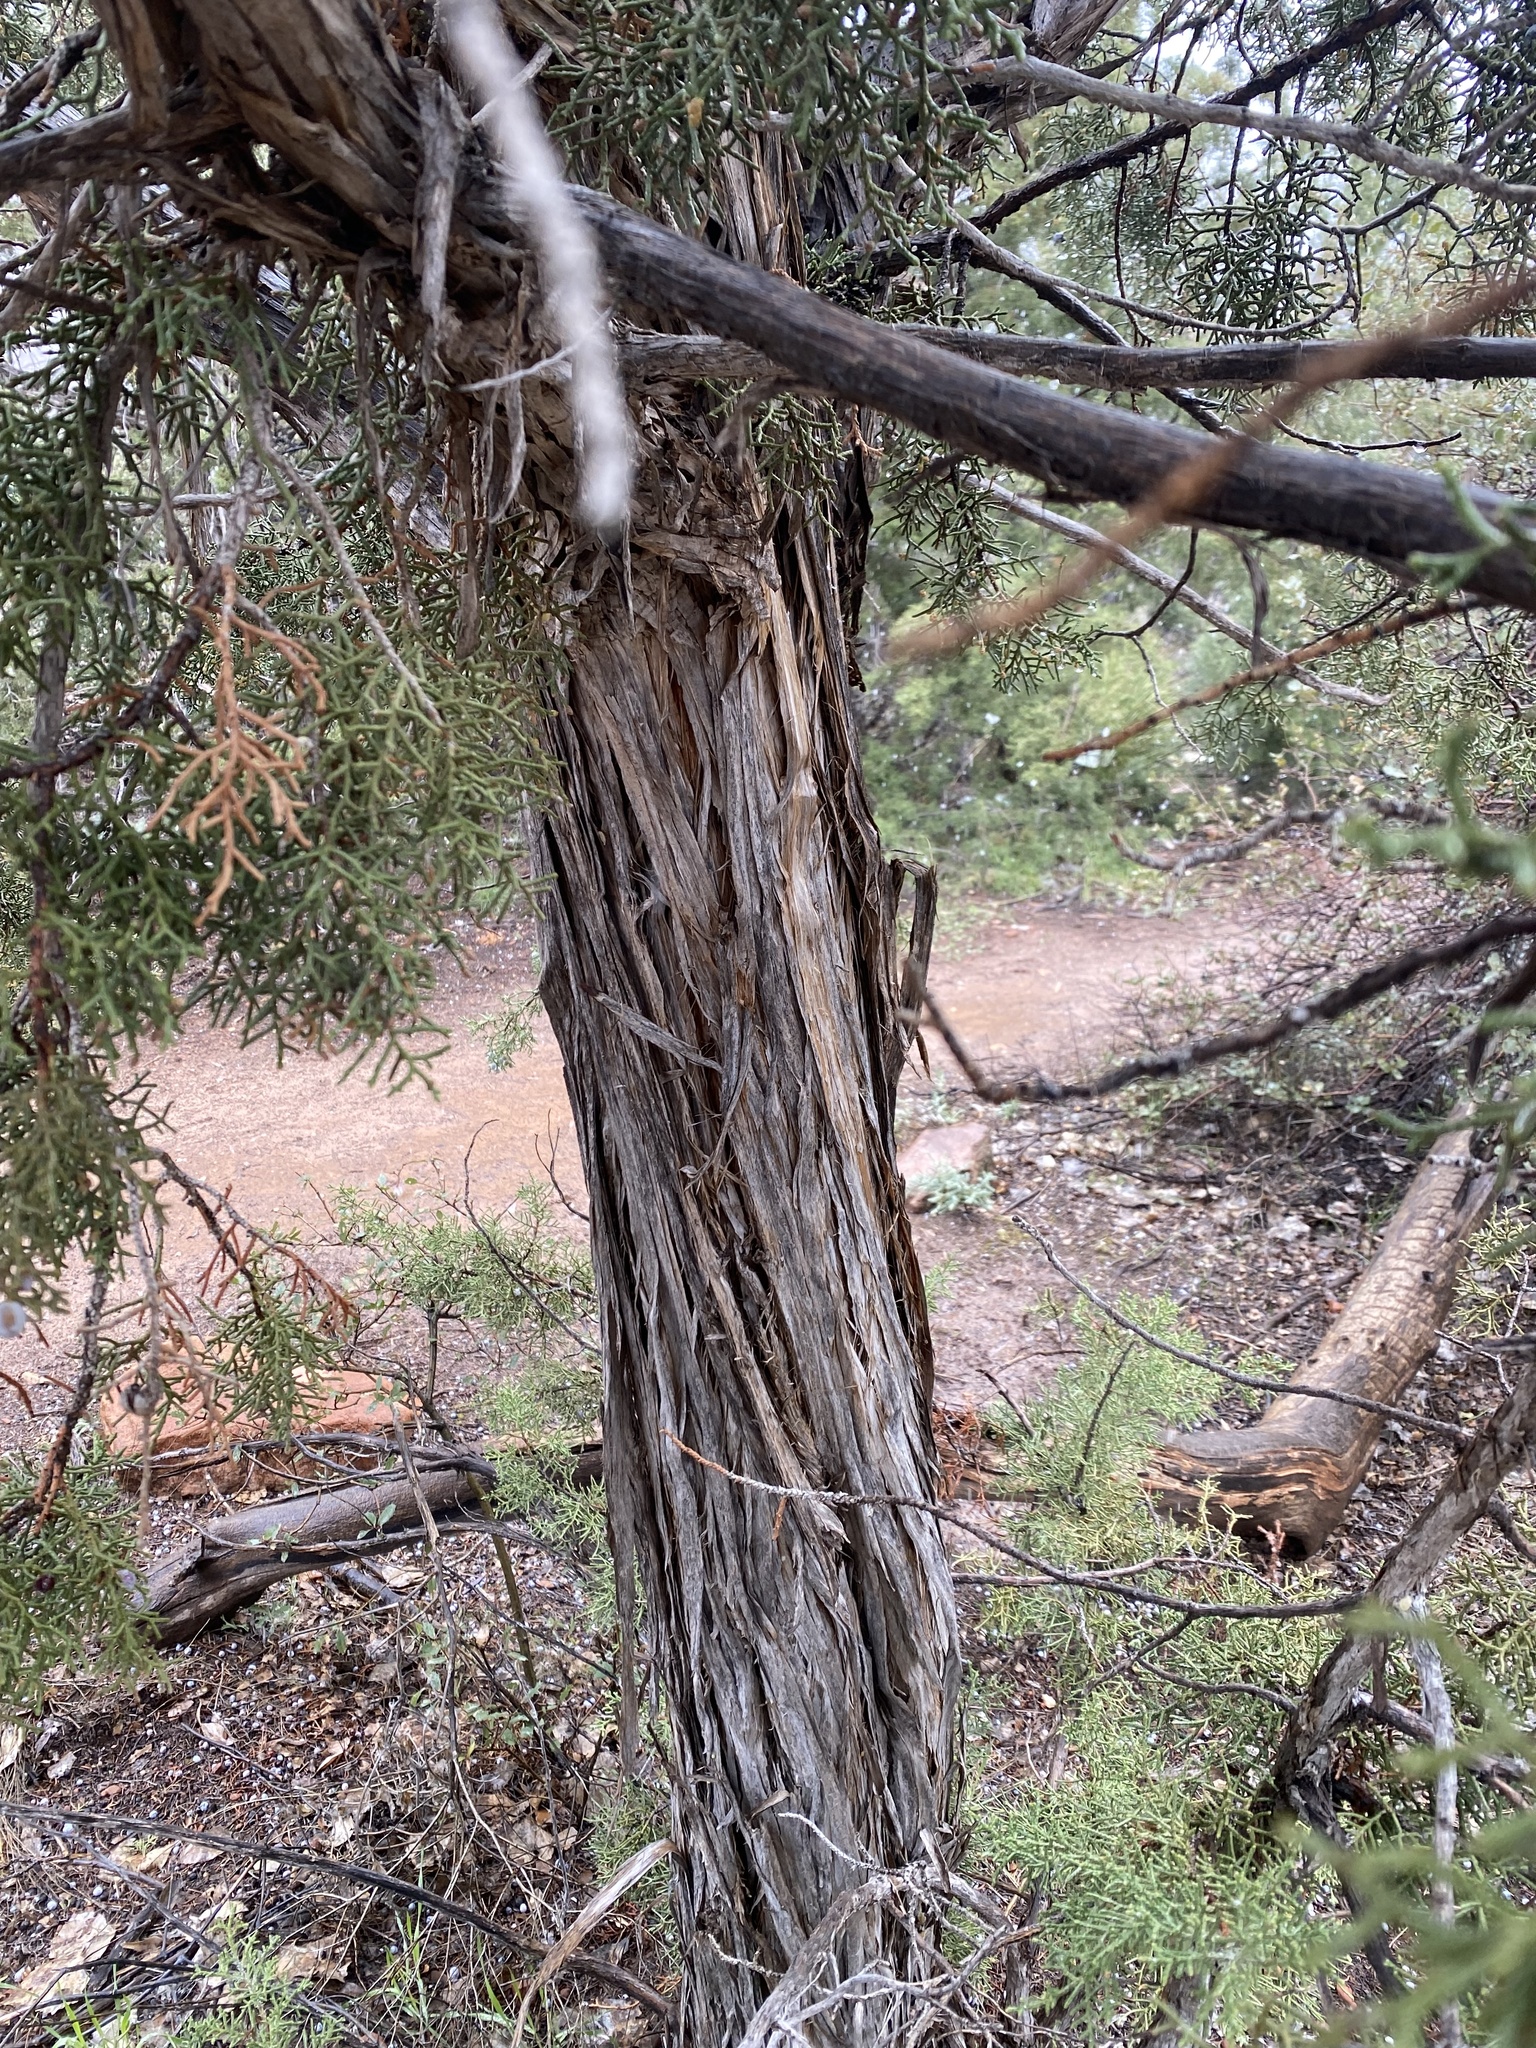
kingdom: Plantae
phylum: Tracheophyta
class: Pinopsida
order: Pinales
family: Cupressaceae
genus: Juniperus
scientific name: Juniperus osteosperma
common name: Utah juniper
